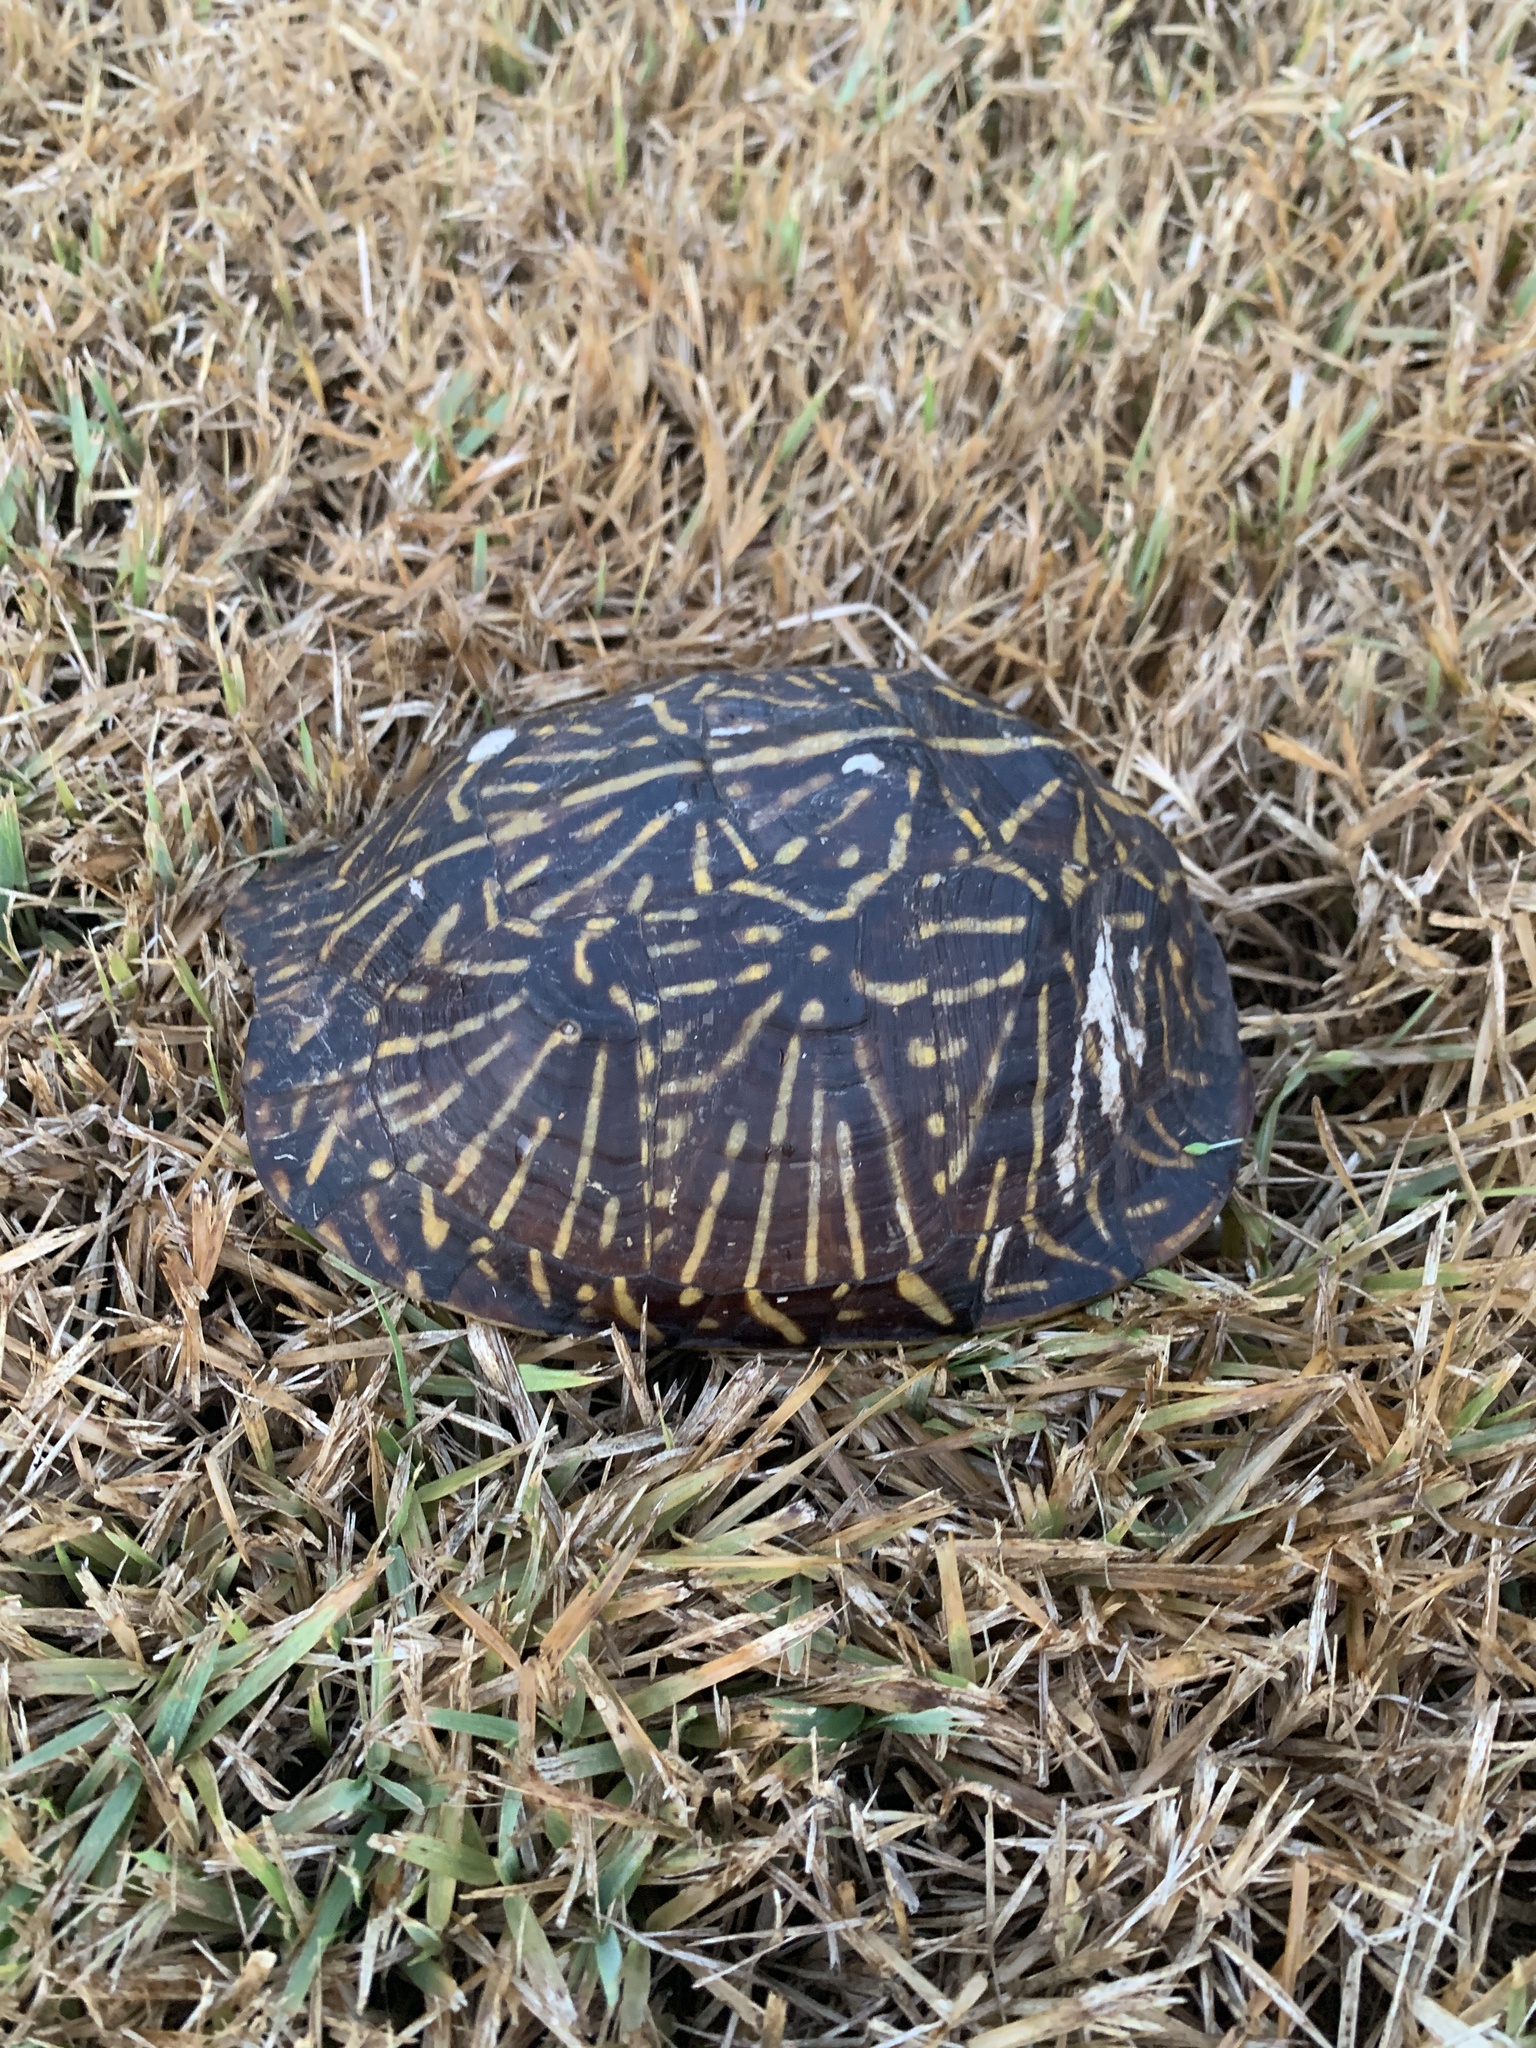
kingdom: Animalia
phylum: Chordata
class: Testudines
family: Emydidae
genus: Terrapene
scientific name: Terrapene carolina
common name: Common box turtle
